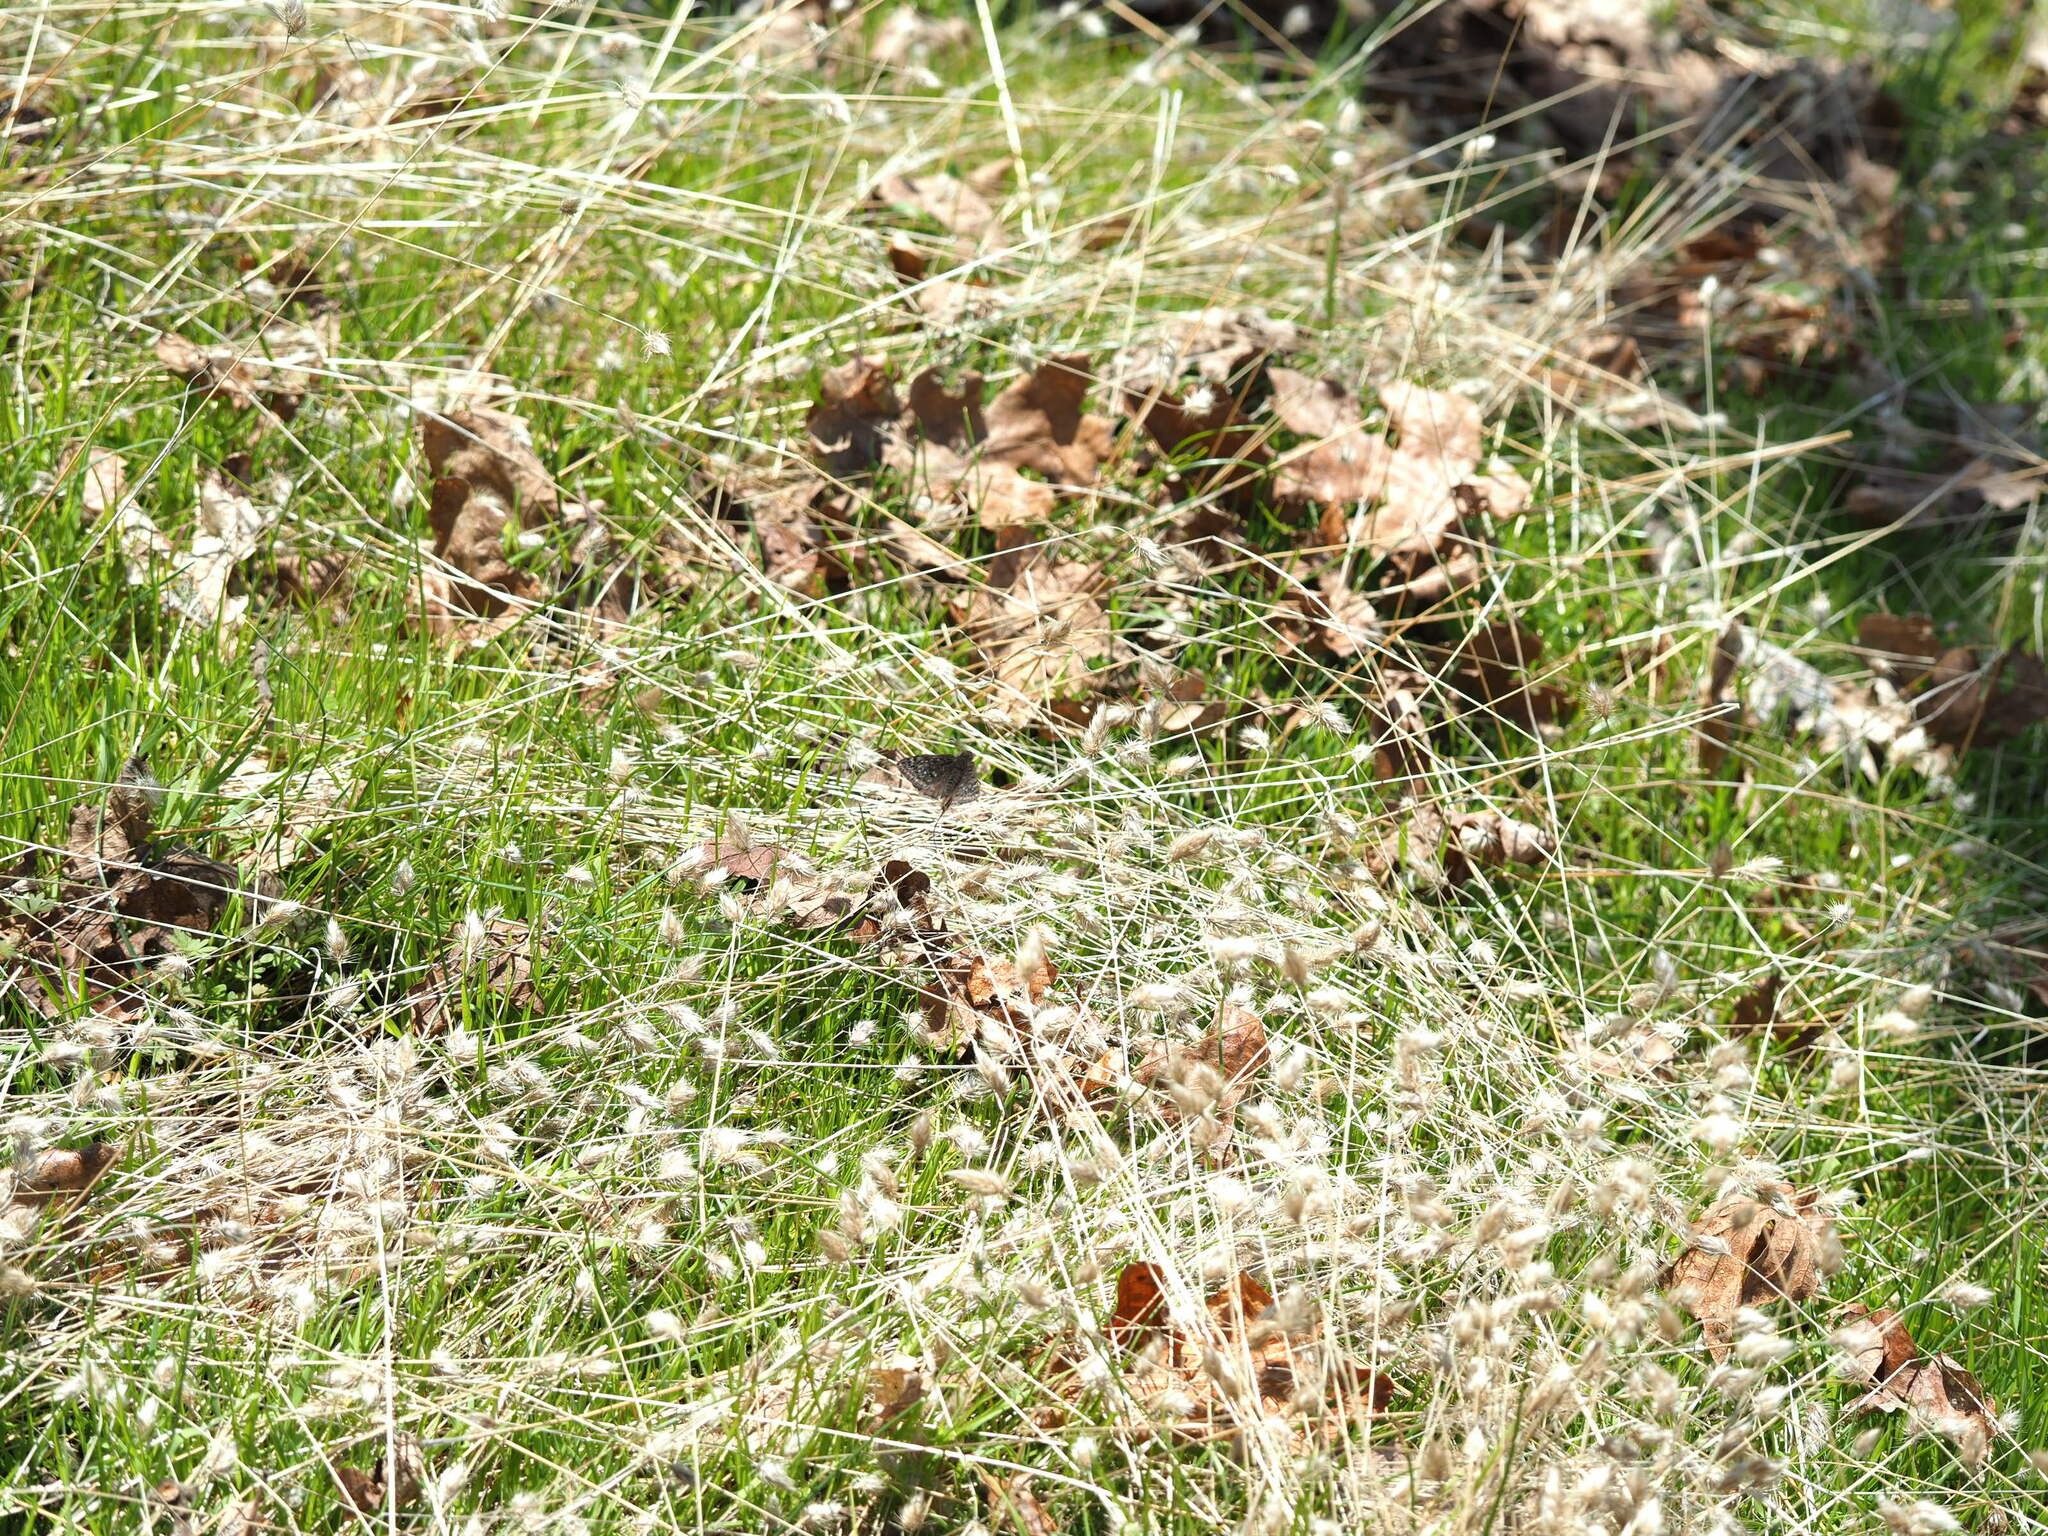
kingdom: Animalia
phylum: Arthropoda
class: Insecta
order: Lepidoptera
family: Hesperiidae
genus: Erynnis
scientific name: Erynnis propertius
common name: Propertius duskywing
